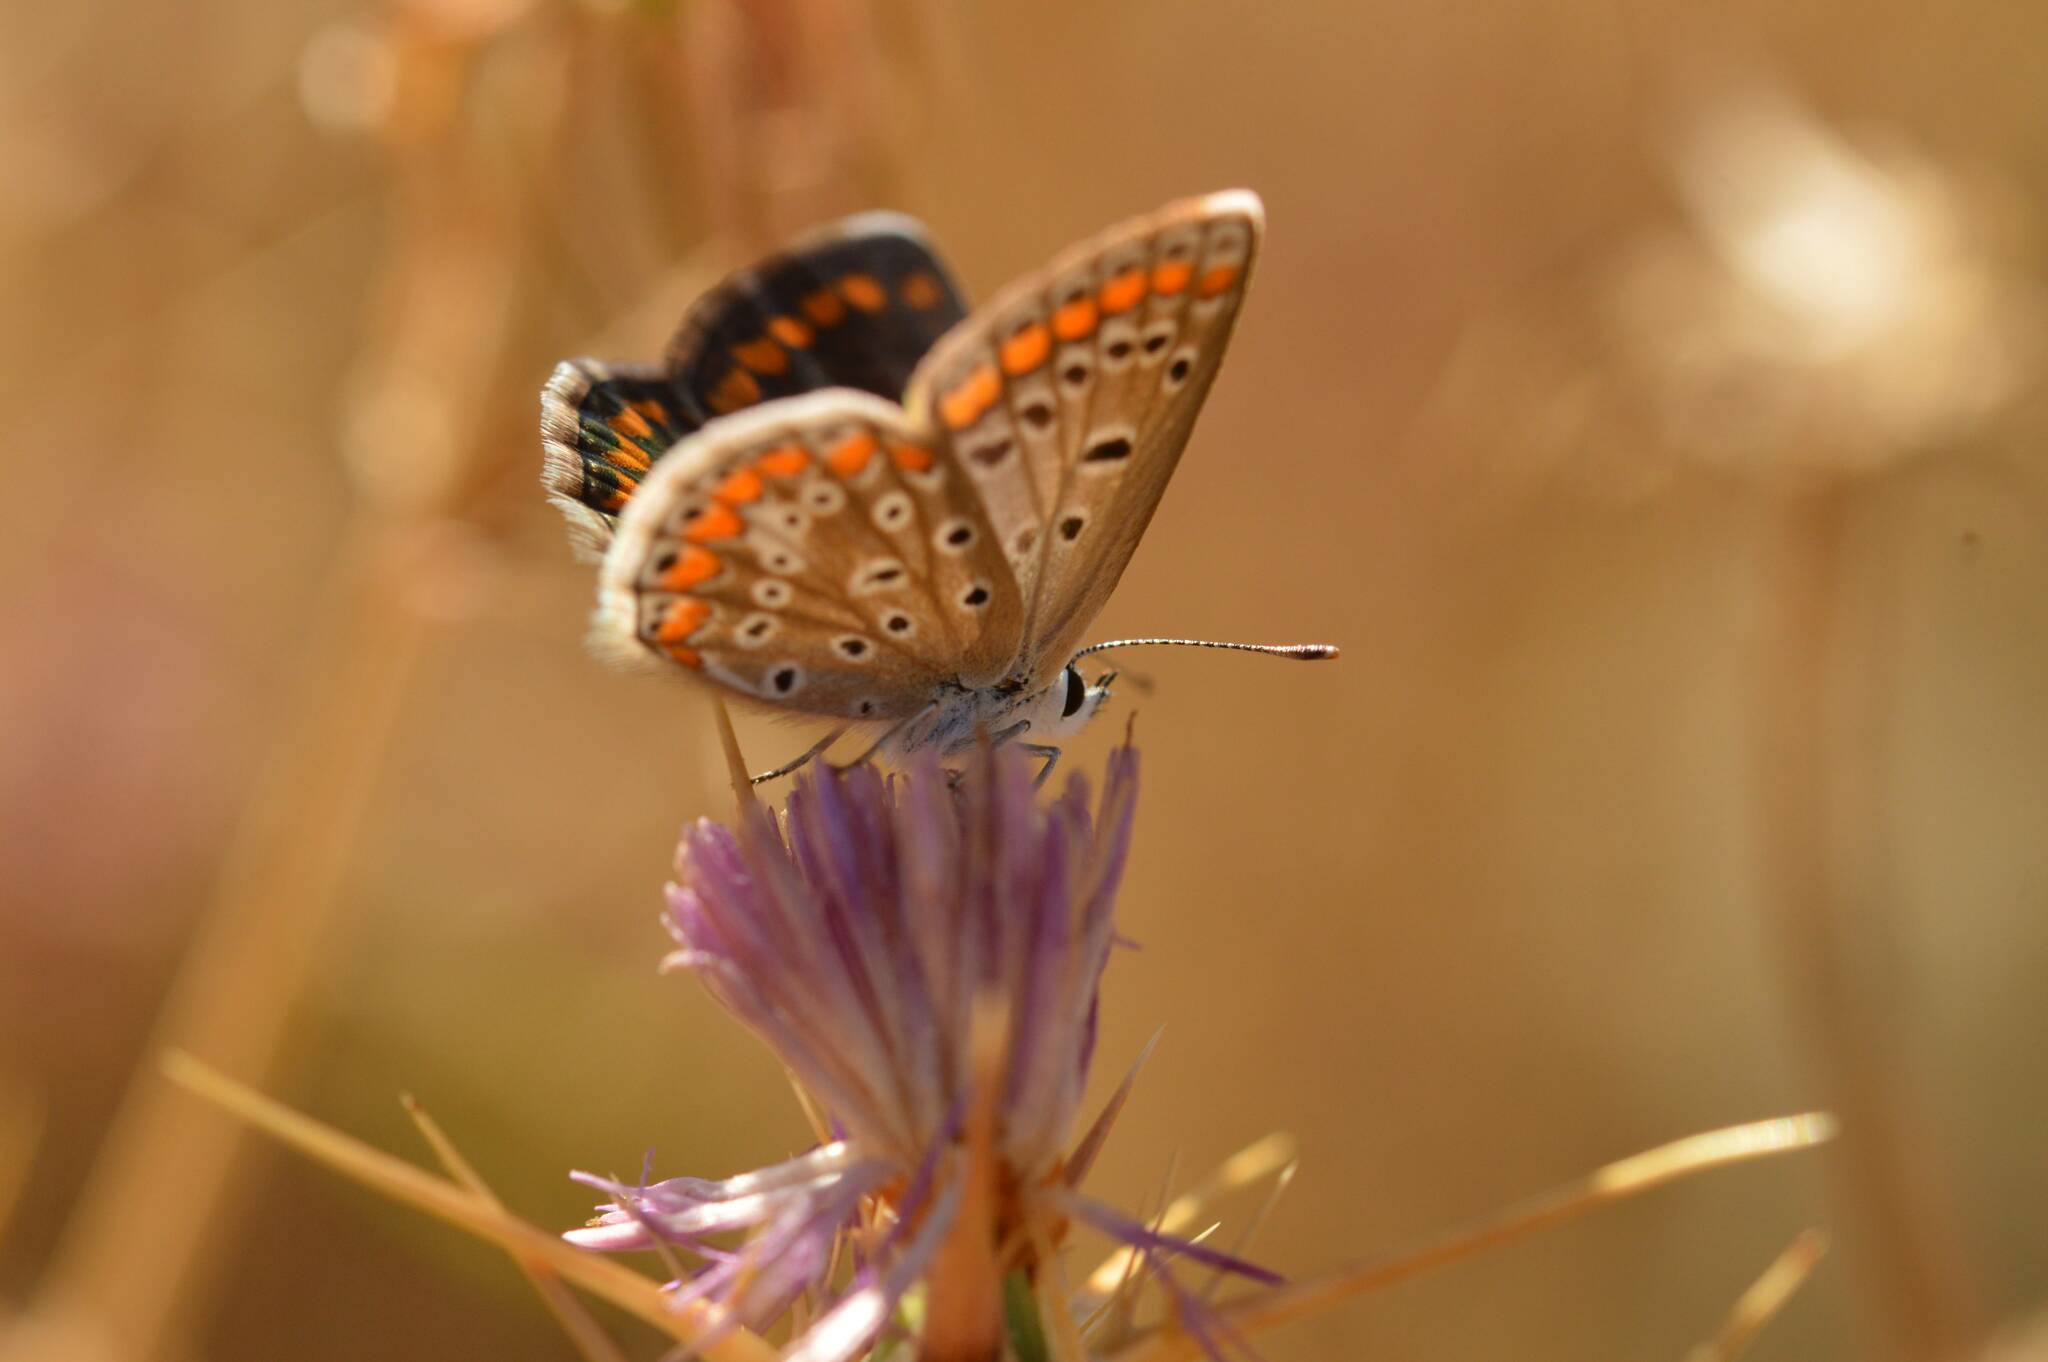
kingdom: Animalia
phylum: Arthropoda
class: Insecta
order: Lepidoptera
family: Lycaenidae
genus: Polyommatus
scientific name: Polyommatus celina
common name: Austaut's blue
